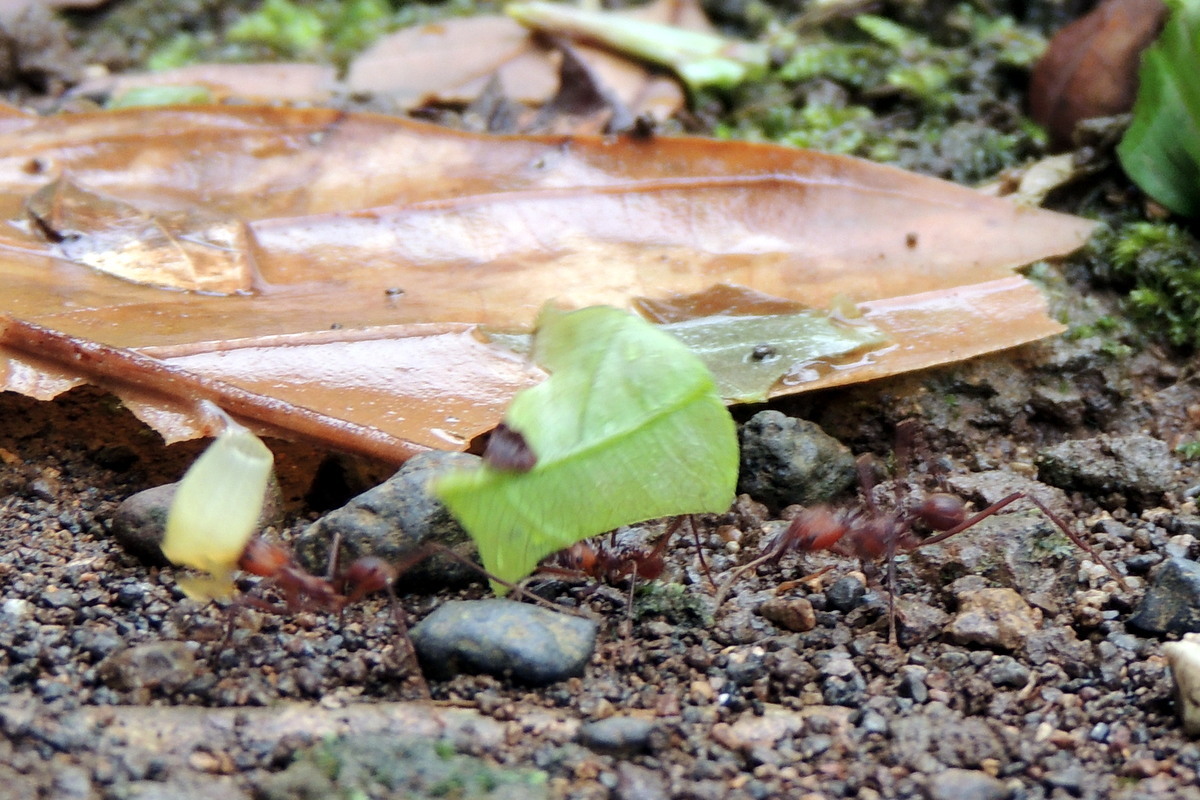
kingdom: Animalia
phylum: Arthropoda
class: Insecta
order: Hymenoptera
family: Formicidae
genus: Atta
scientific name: Atta cephalotes
